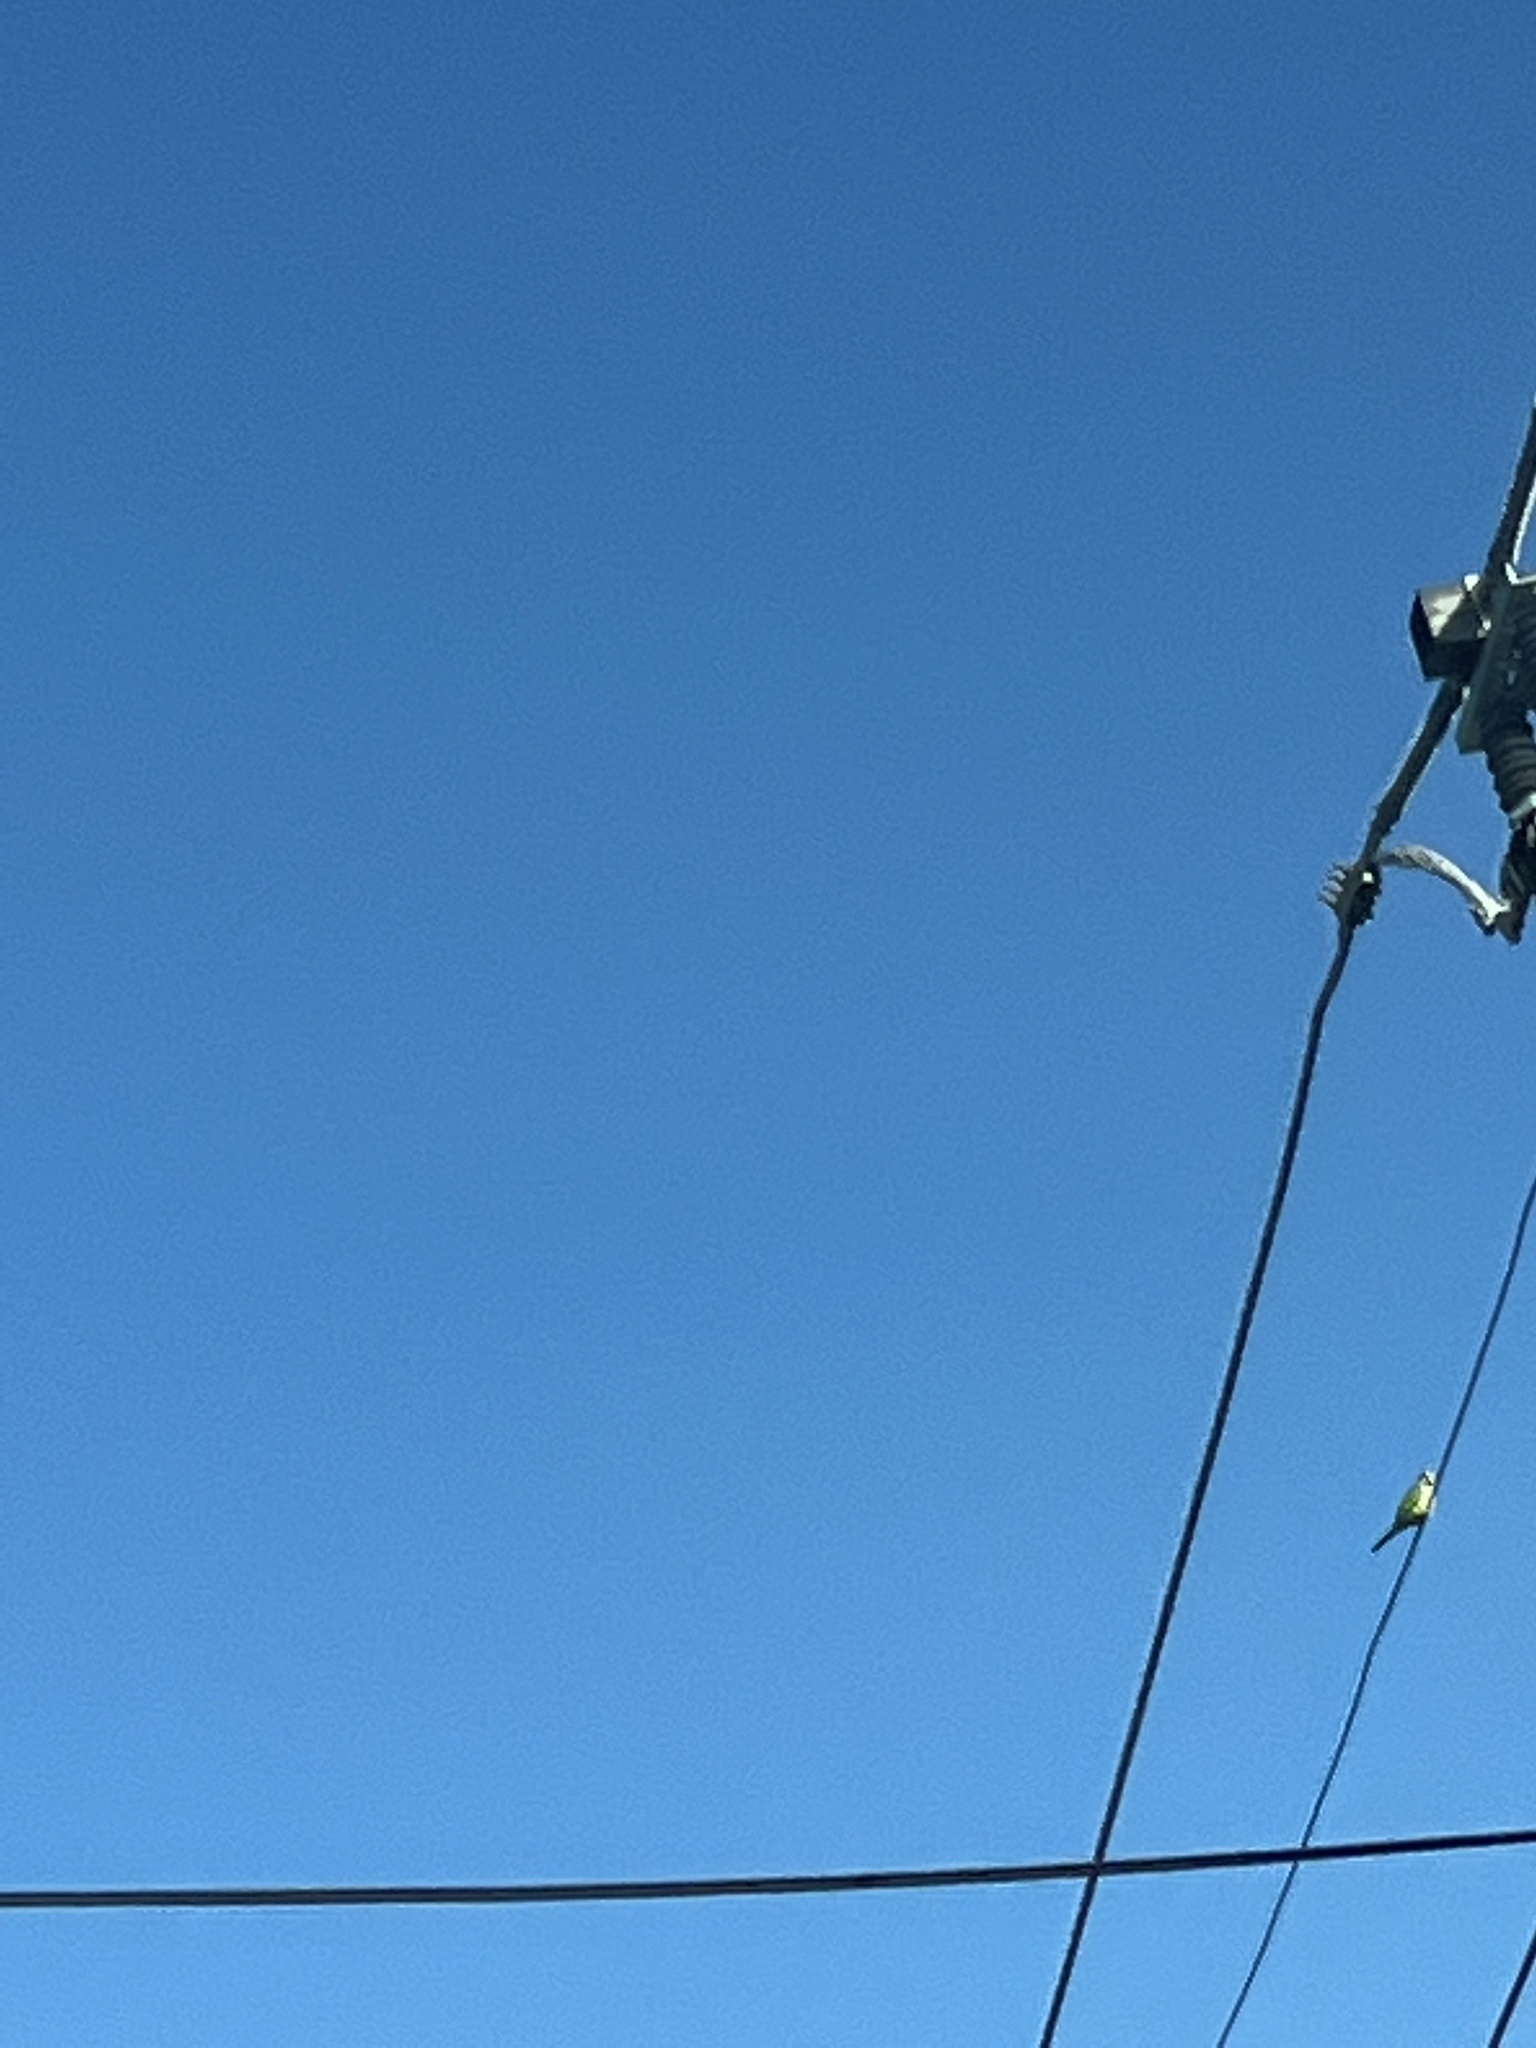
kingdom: Animalia
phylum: Chordata
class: Aves
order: Psittaciformes
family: Psittacidae
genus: Myiopsitta
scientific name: Myiopsitta monachus
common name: Monk parakeet
